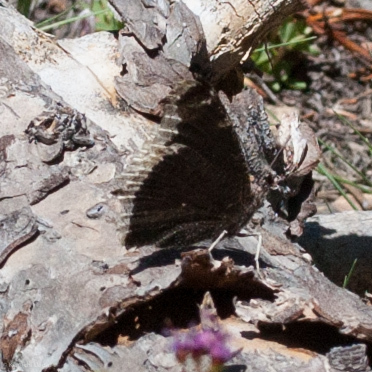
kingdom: Animalia
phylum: Arthropoda
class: Insecta
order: Lepidoptera
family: Nymphalidae
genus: Nymphalis
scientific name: Nymphalis antiopa
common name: Camberwell beauty
